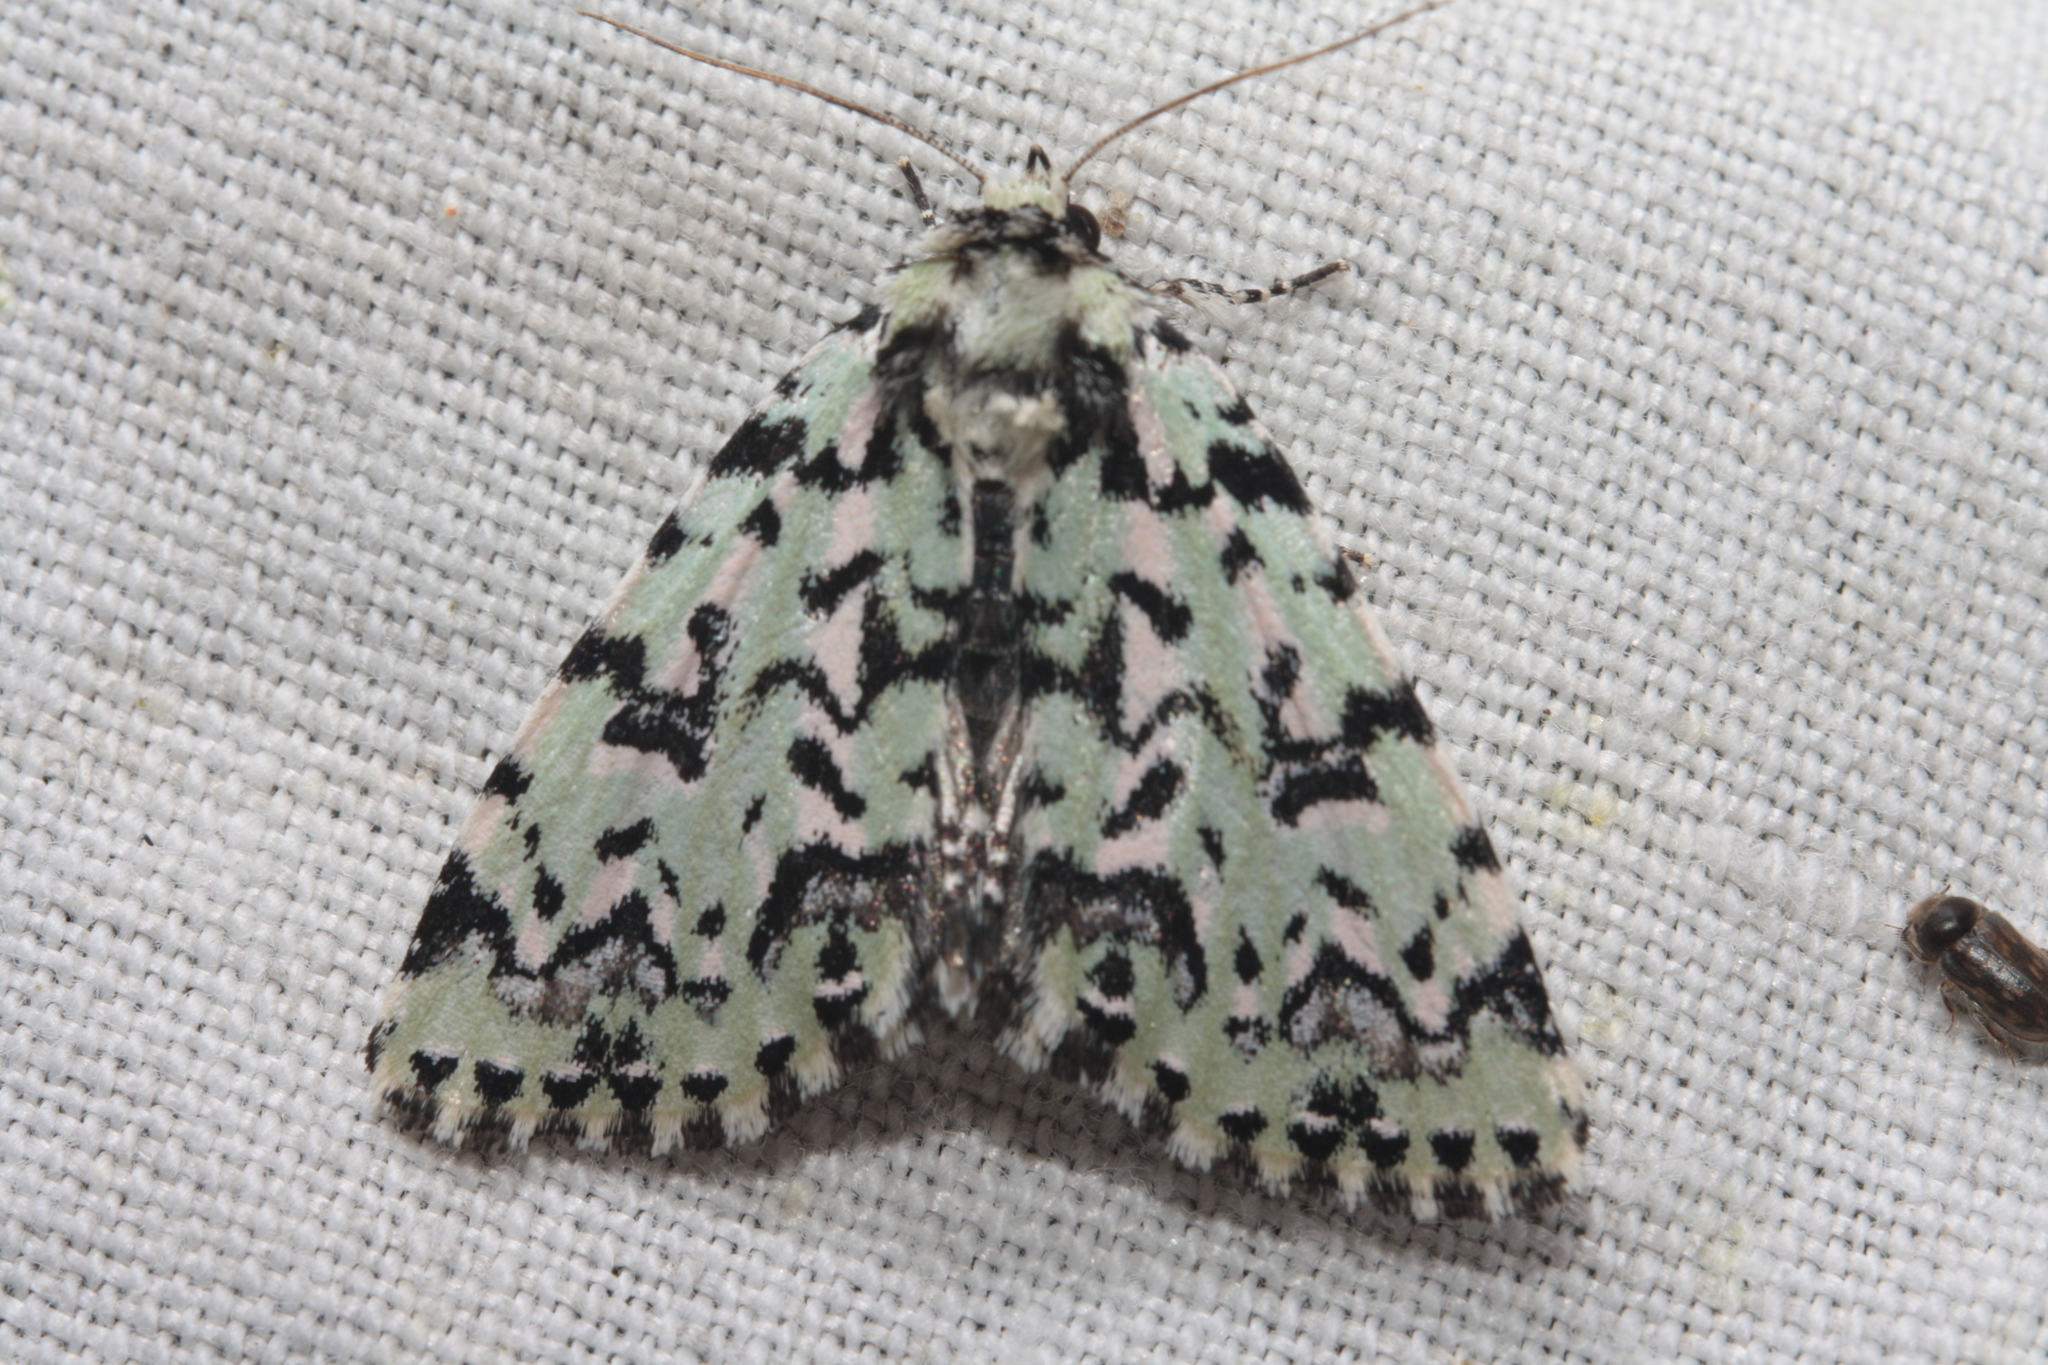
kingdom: Animalia
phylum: Arthropoda
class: Insecta
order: Lepidoptera
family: Noctuidae
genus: Moma
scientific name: Moma alpium
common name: Scarce merveille du jour
